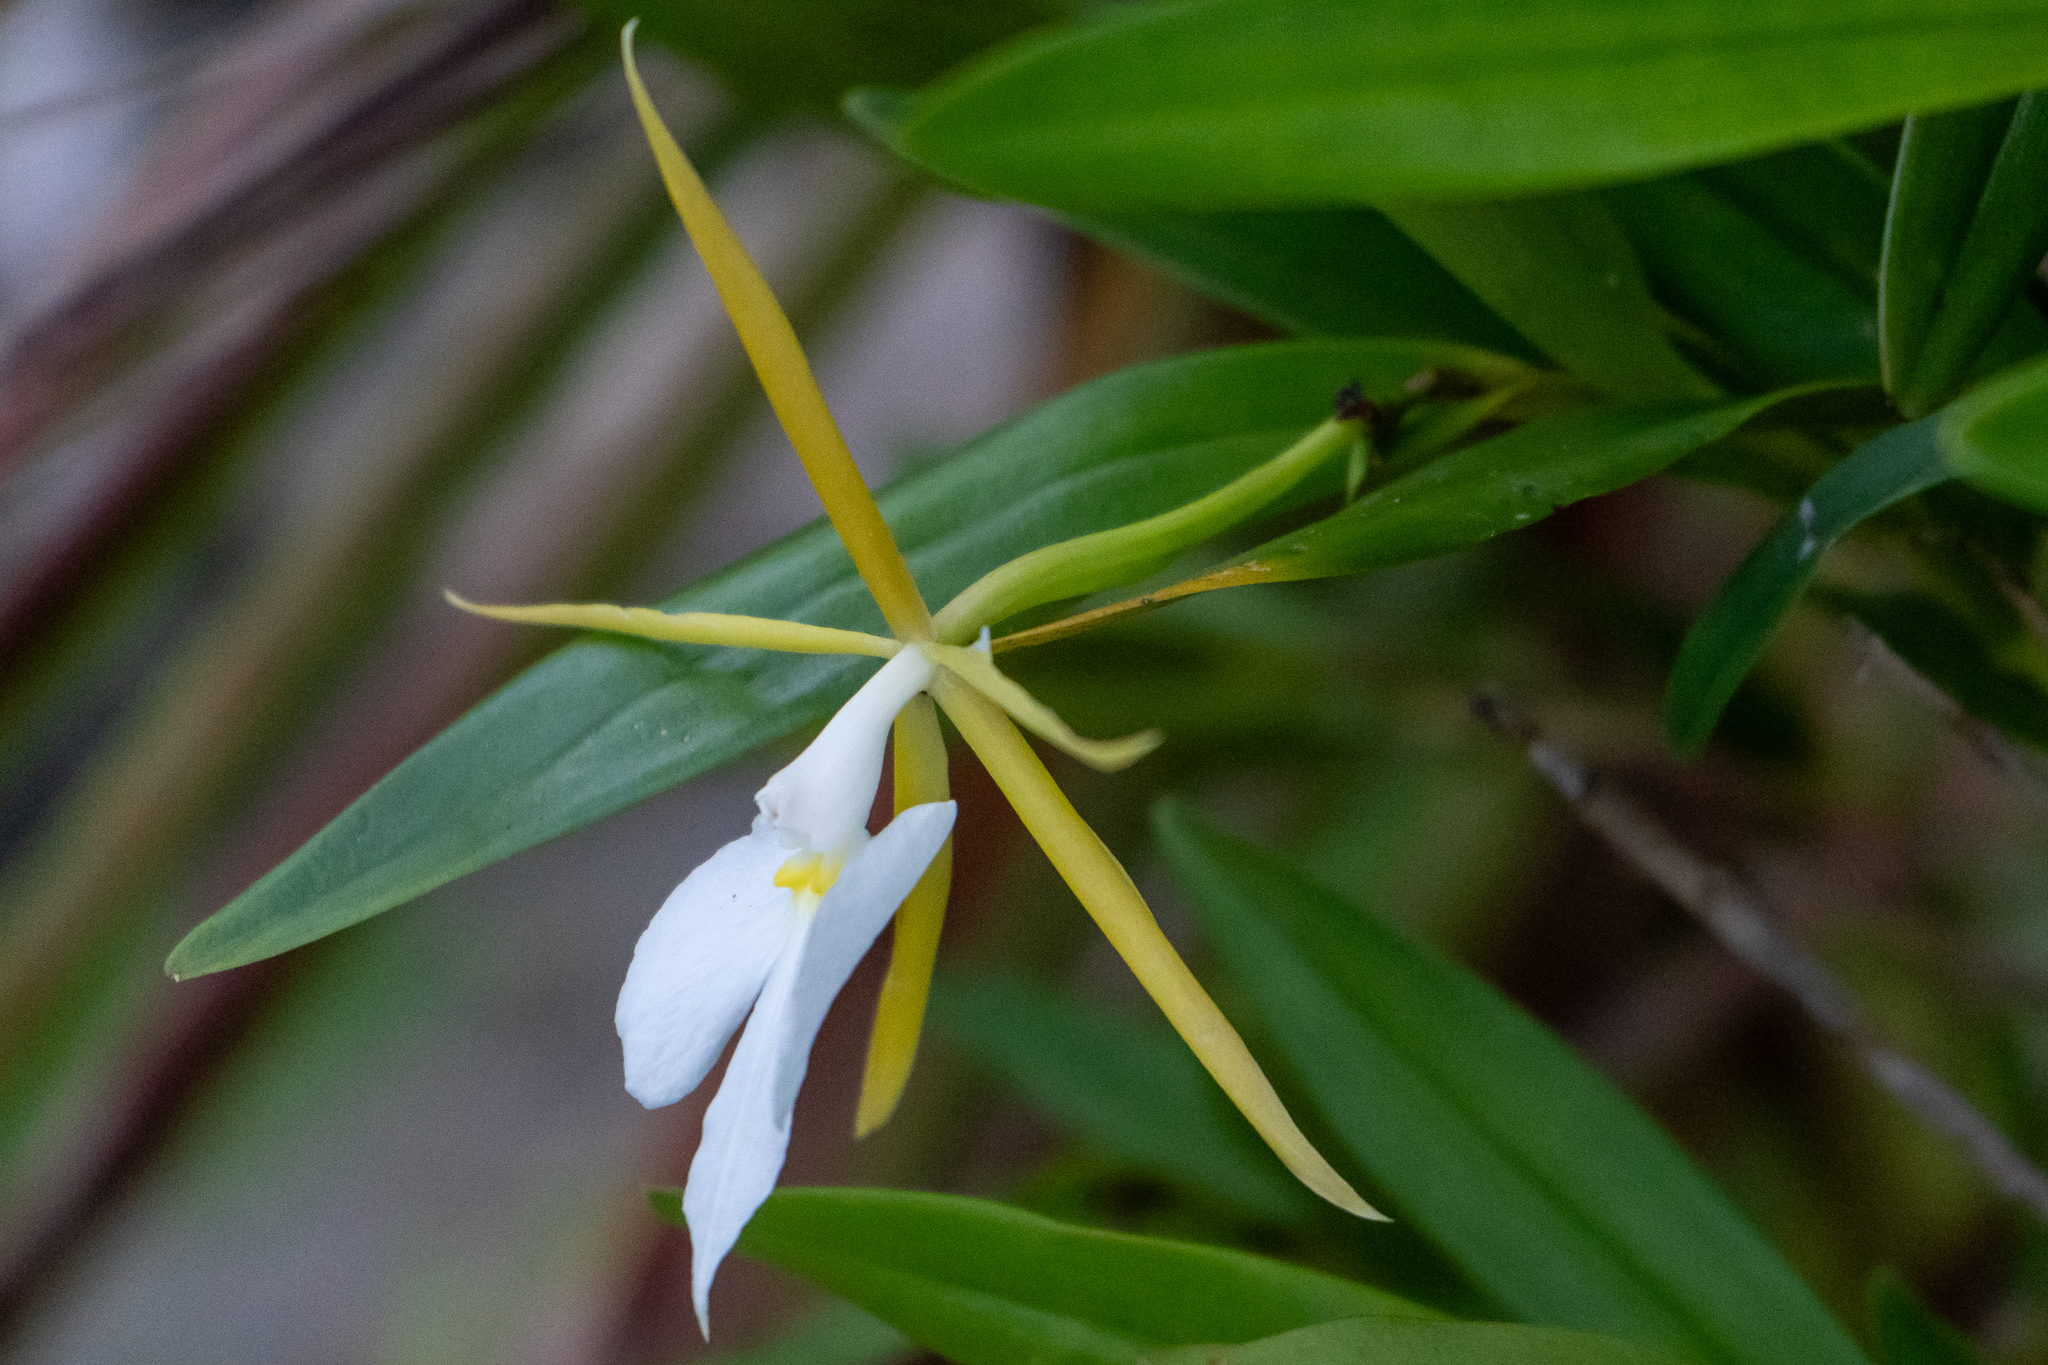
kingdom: Plantae
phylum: Tracheophyta
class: Liliopsida
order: Asparagales
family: Orchidaceae
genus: Epidendrum
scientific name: Epidendrum nocturnum
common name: Night scented orchid
